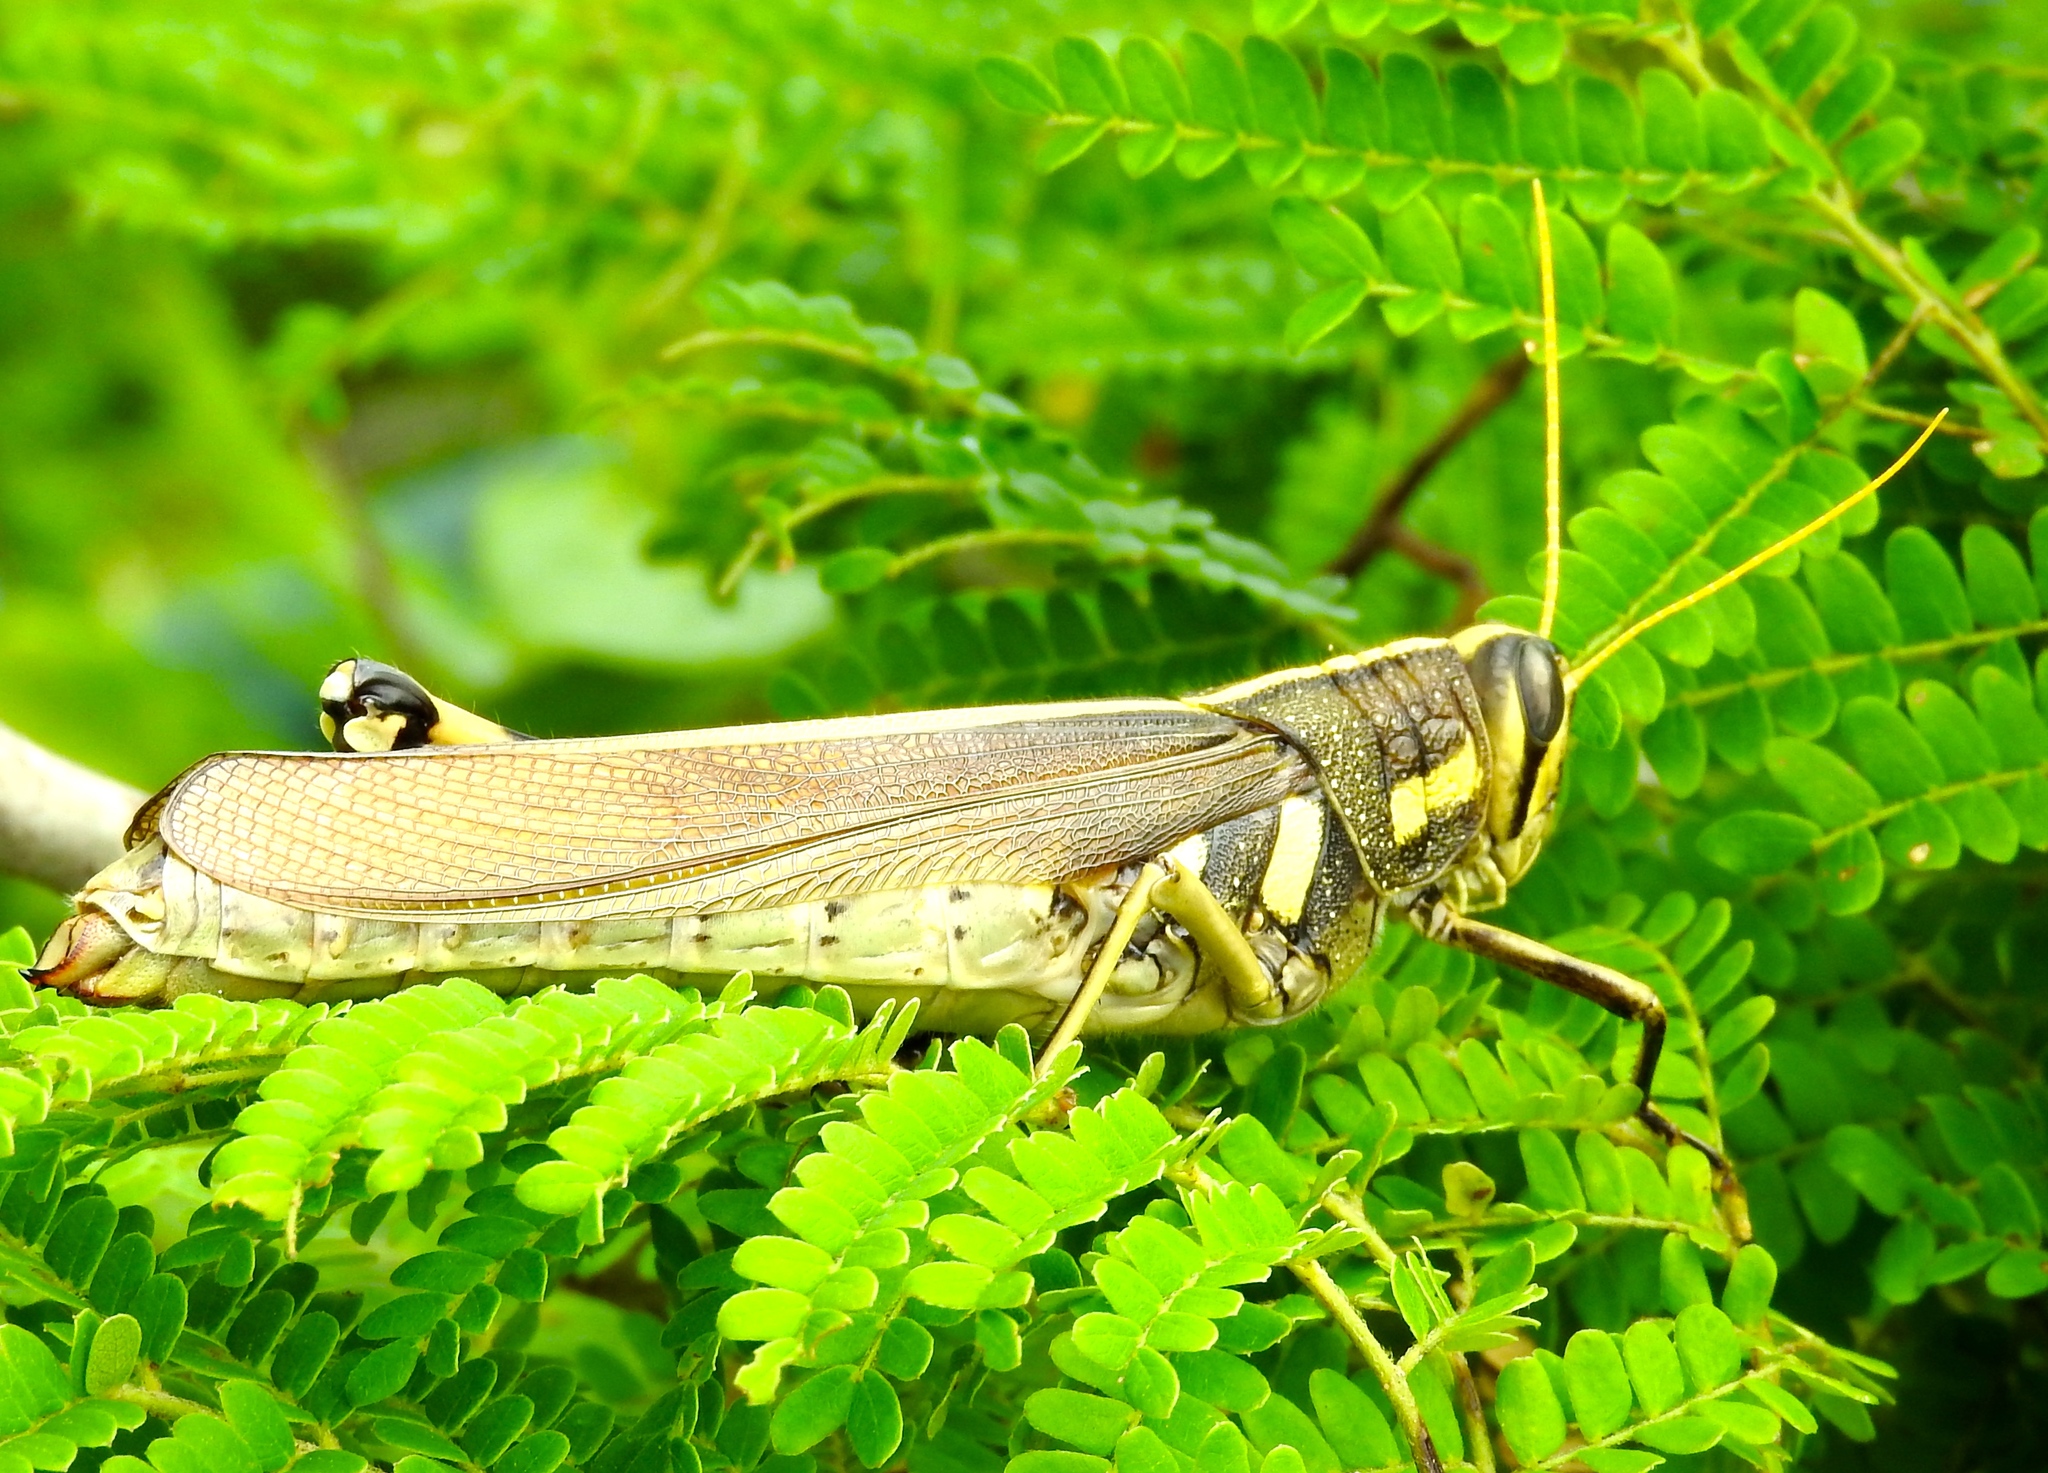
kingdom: Animalia
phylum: Arthropoda
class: Insecta
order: Orthoptera
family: Acrididae
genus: Schistocerca
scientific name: Schistocerca albolineata
